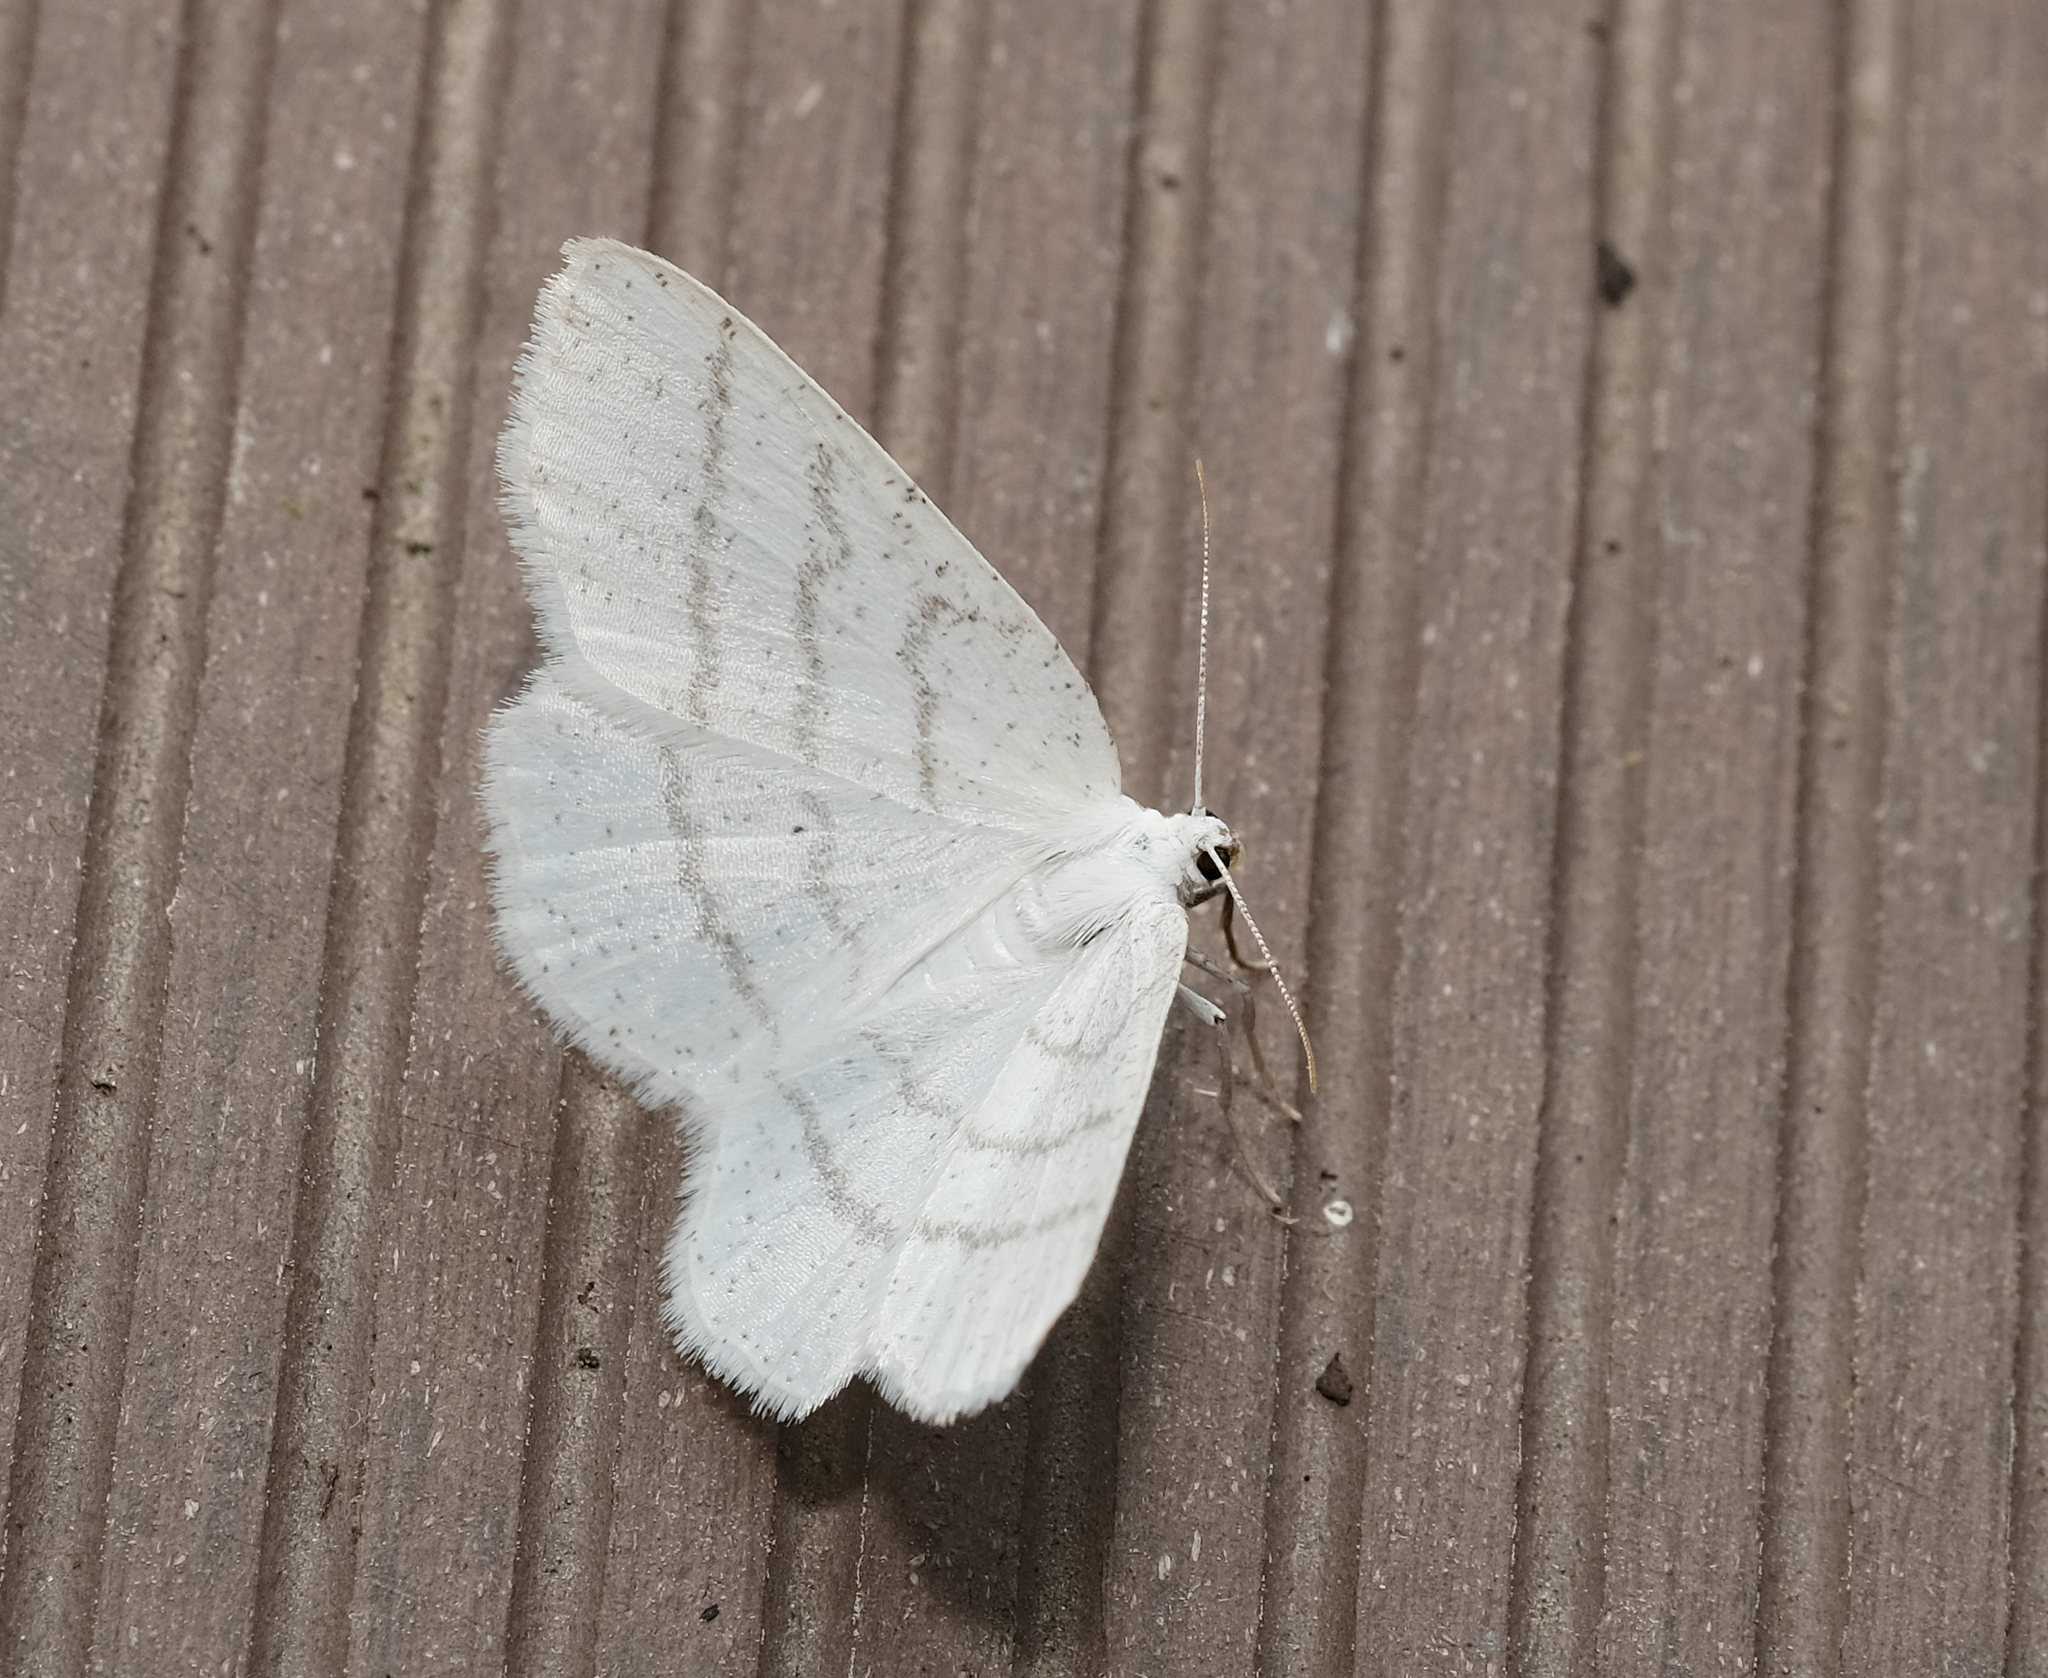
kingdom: Animalia
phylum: Arthropoda
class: Insecta
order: Lepidoptera
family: Geometridae
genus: Cabera
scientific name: Cabera pusaria
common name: Common white wave
